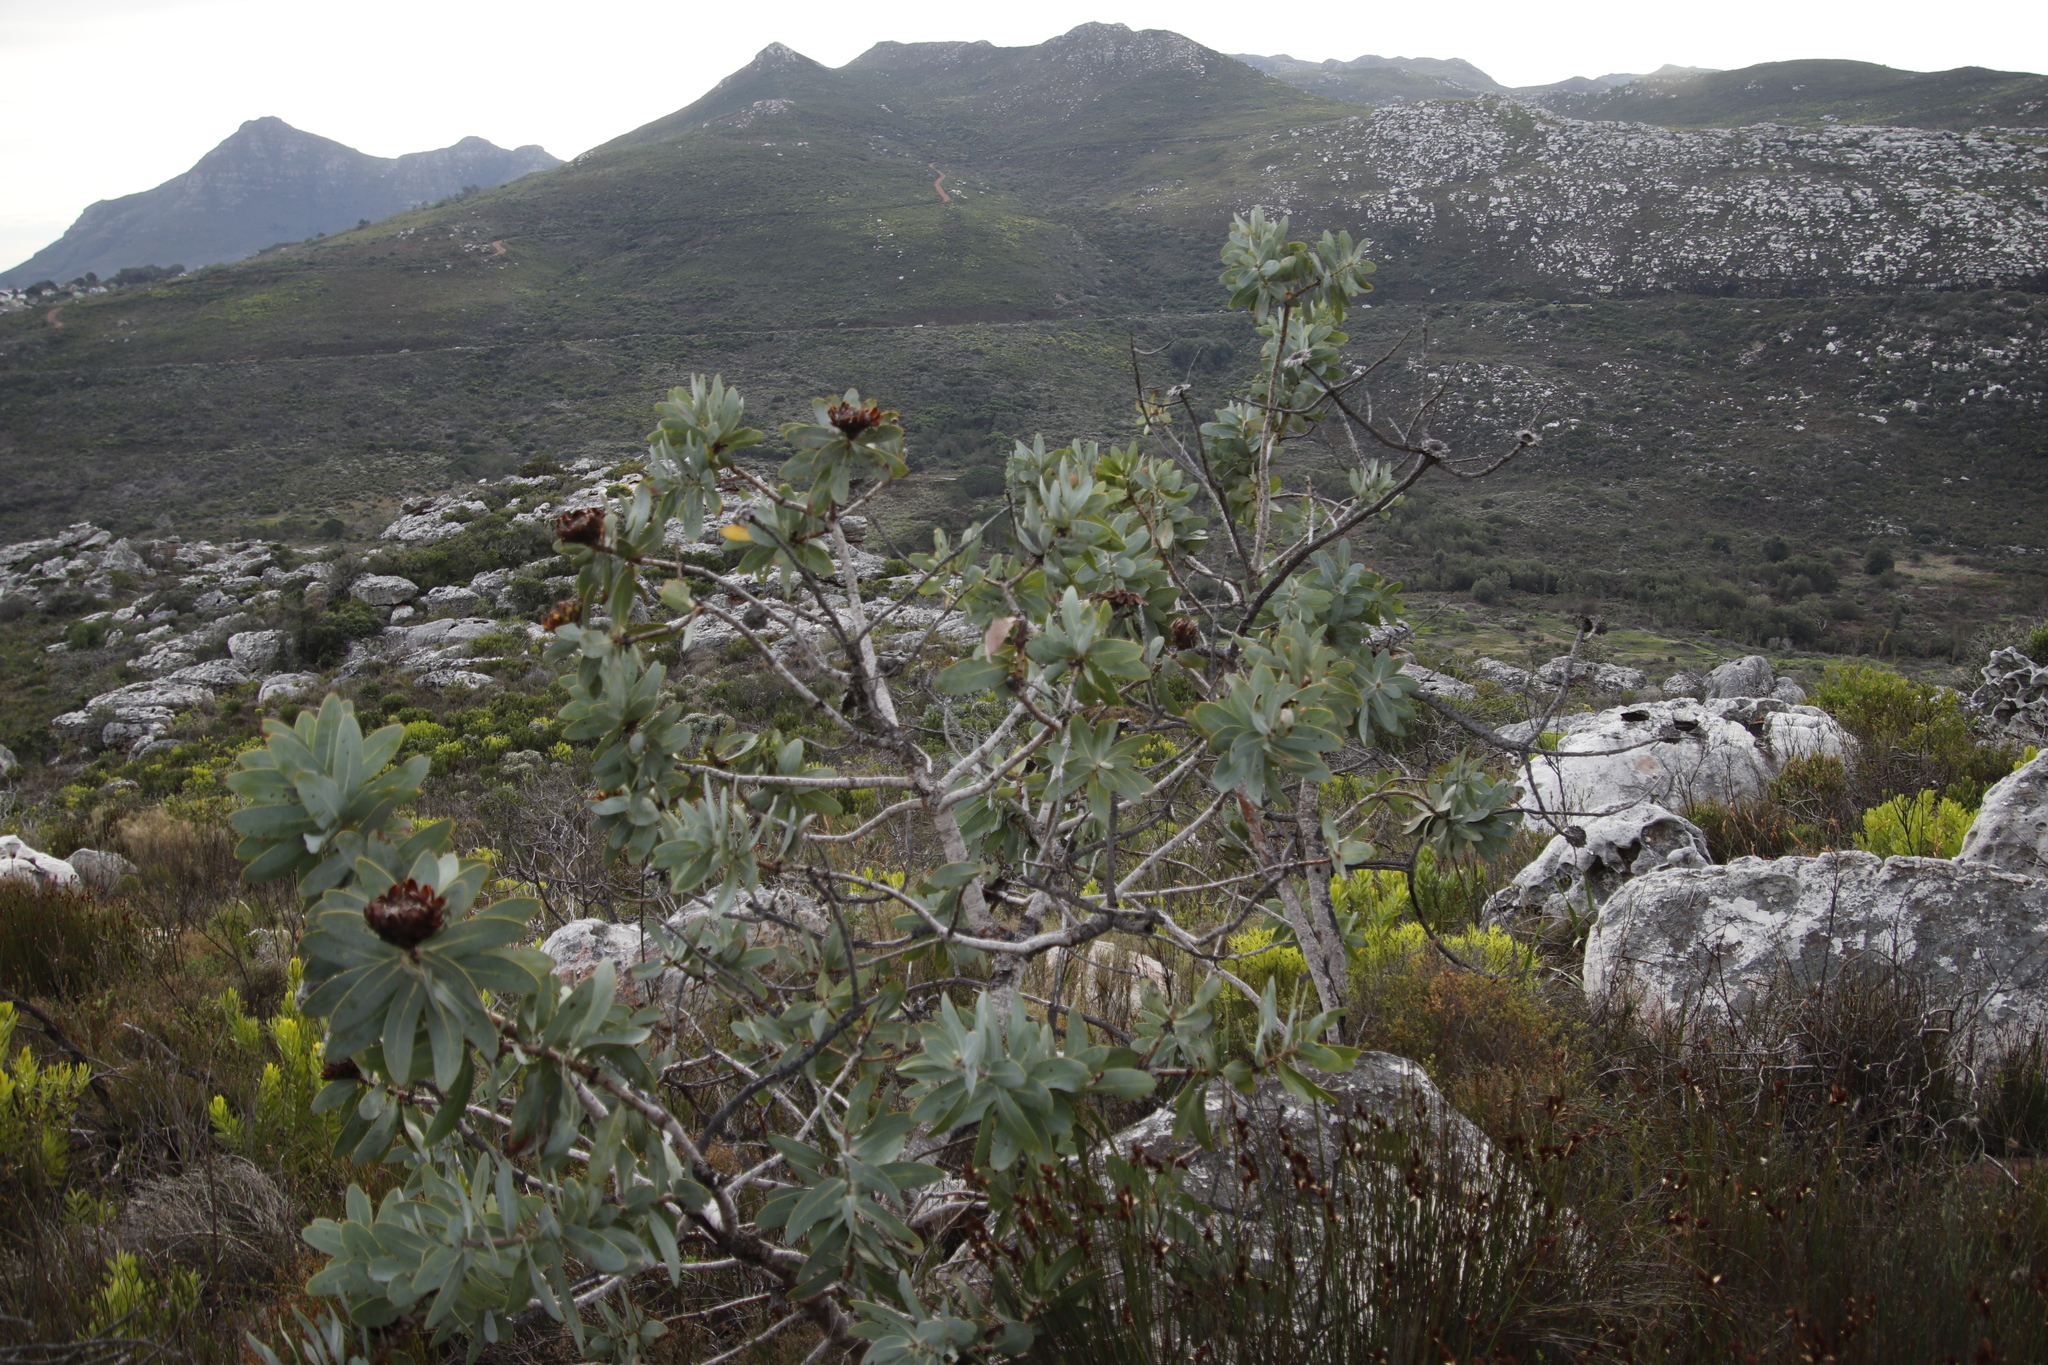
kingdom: Plantae
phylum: Tracheophyta
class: Magnoliopsida
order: Proteales
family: Proteaceae
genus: Protea
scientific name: Protea nitida
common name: Tree protea
